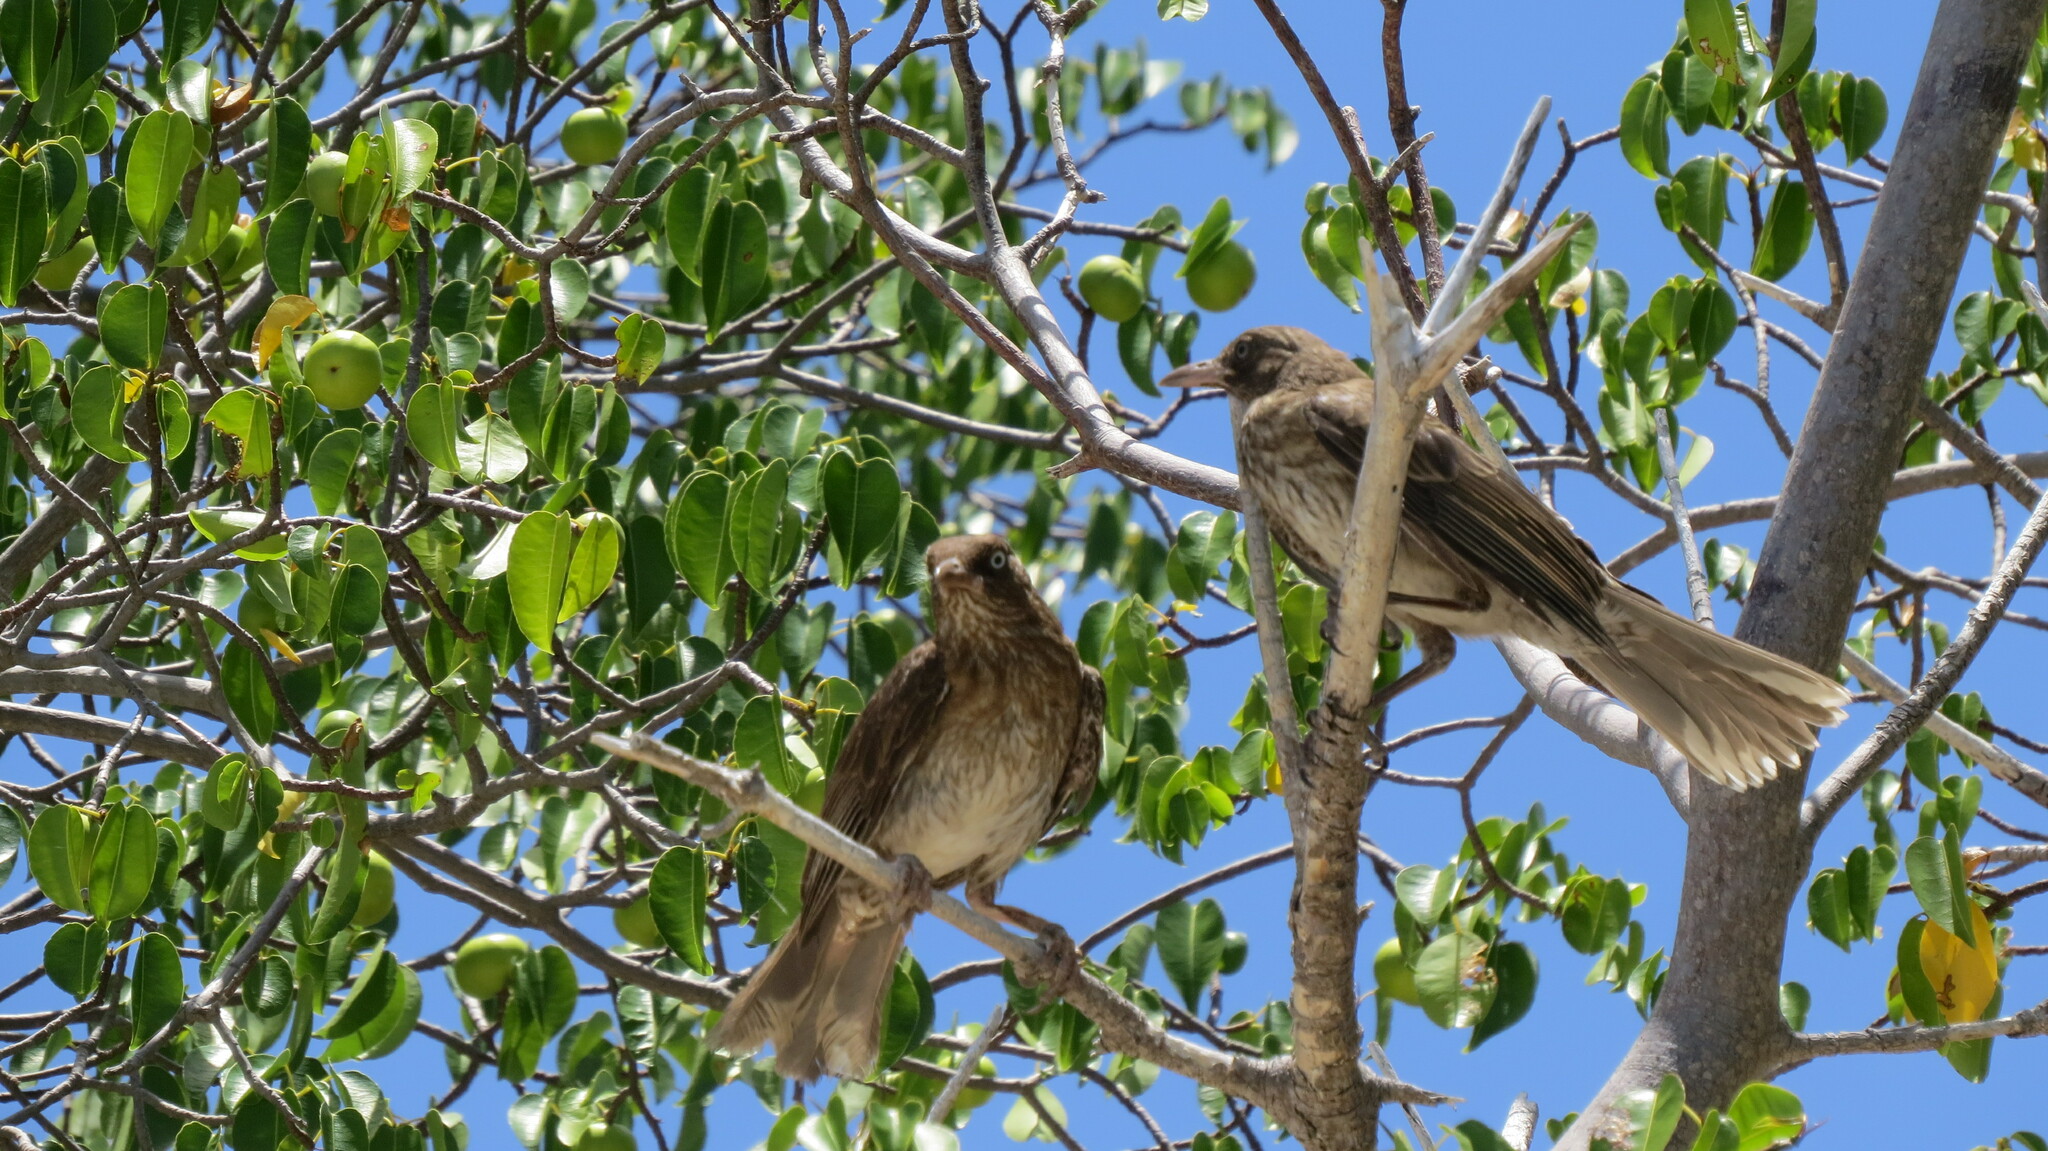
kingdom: Animalia
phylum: Chordata
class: Aves
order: Passeriformes
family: Mimidae
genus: Margarops
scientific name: Margarops fuscatus
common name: Pearly-eyed thrasher
